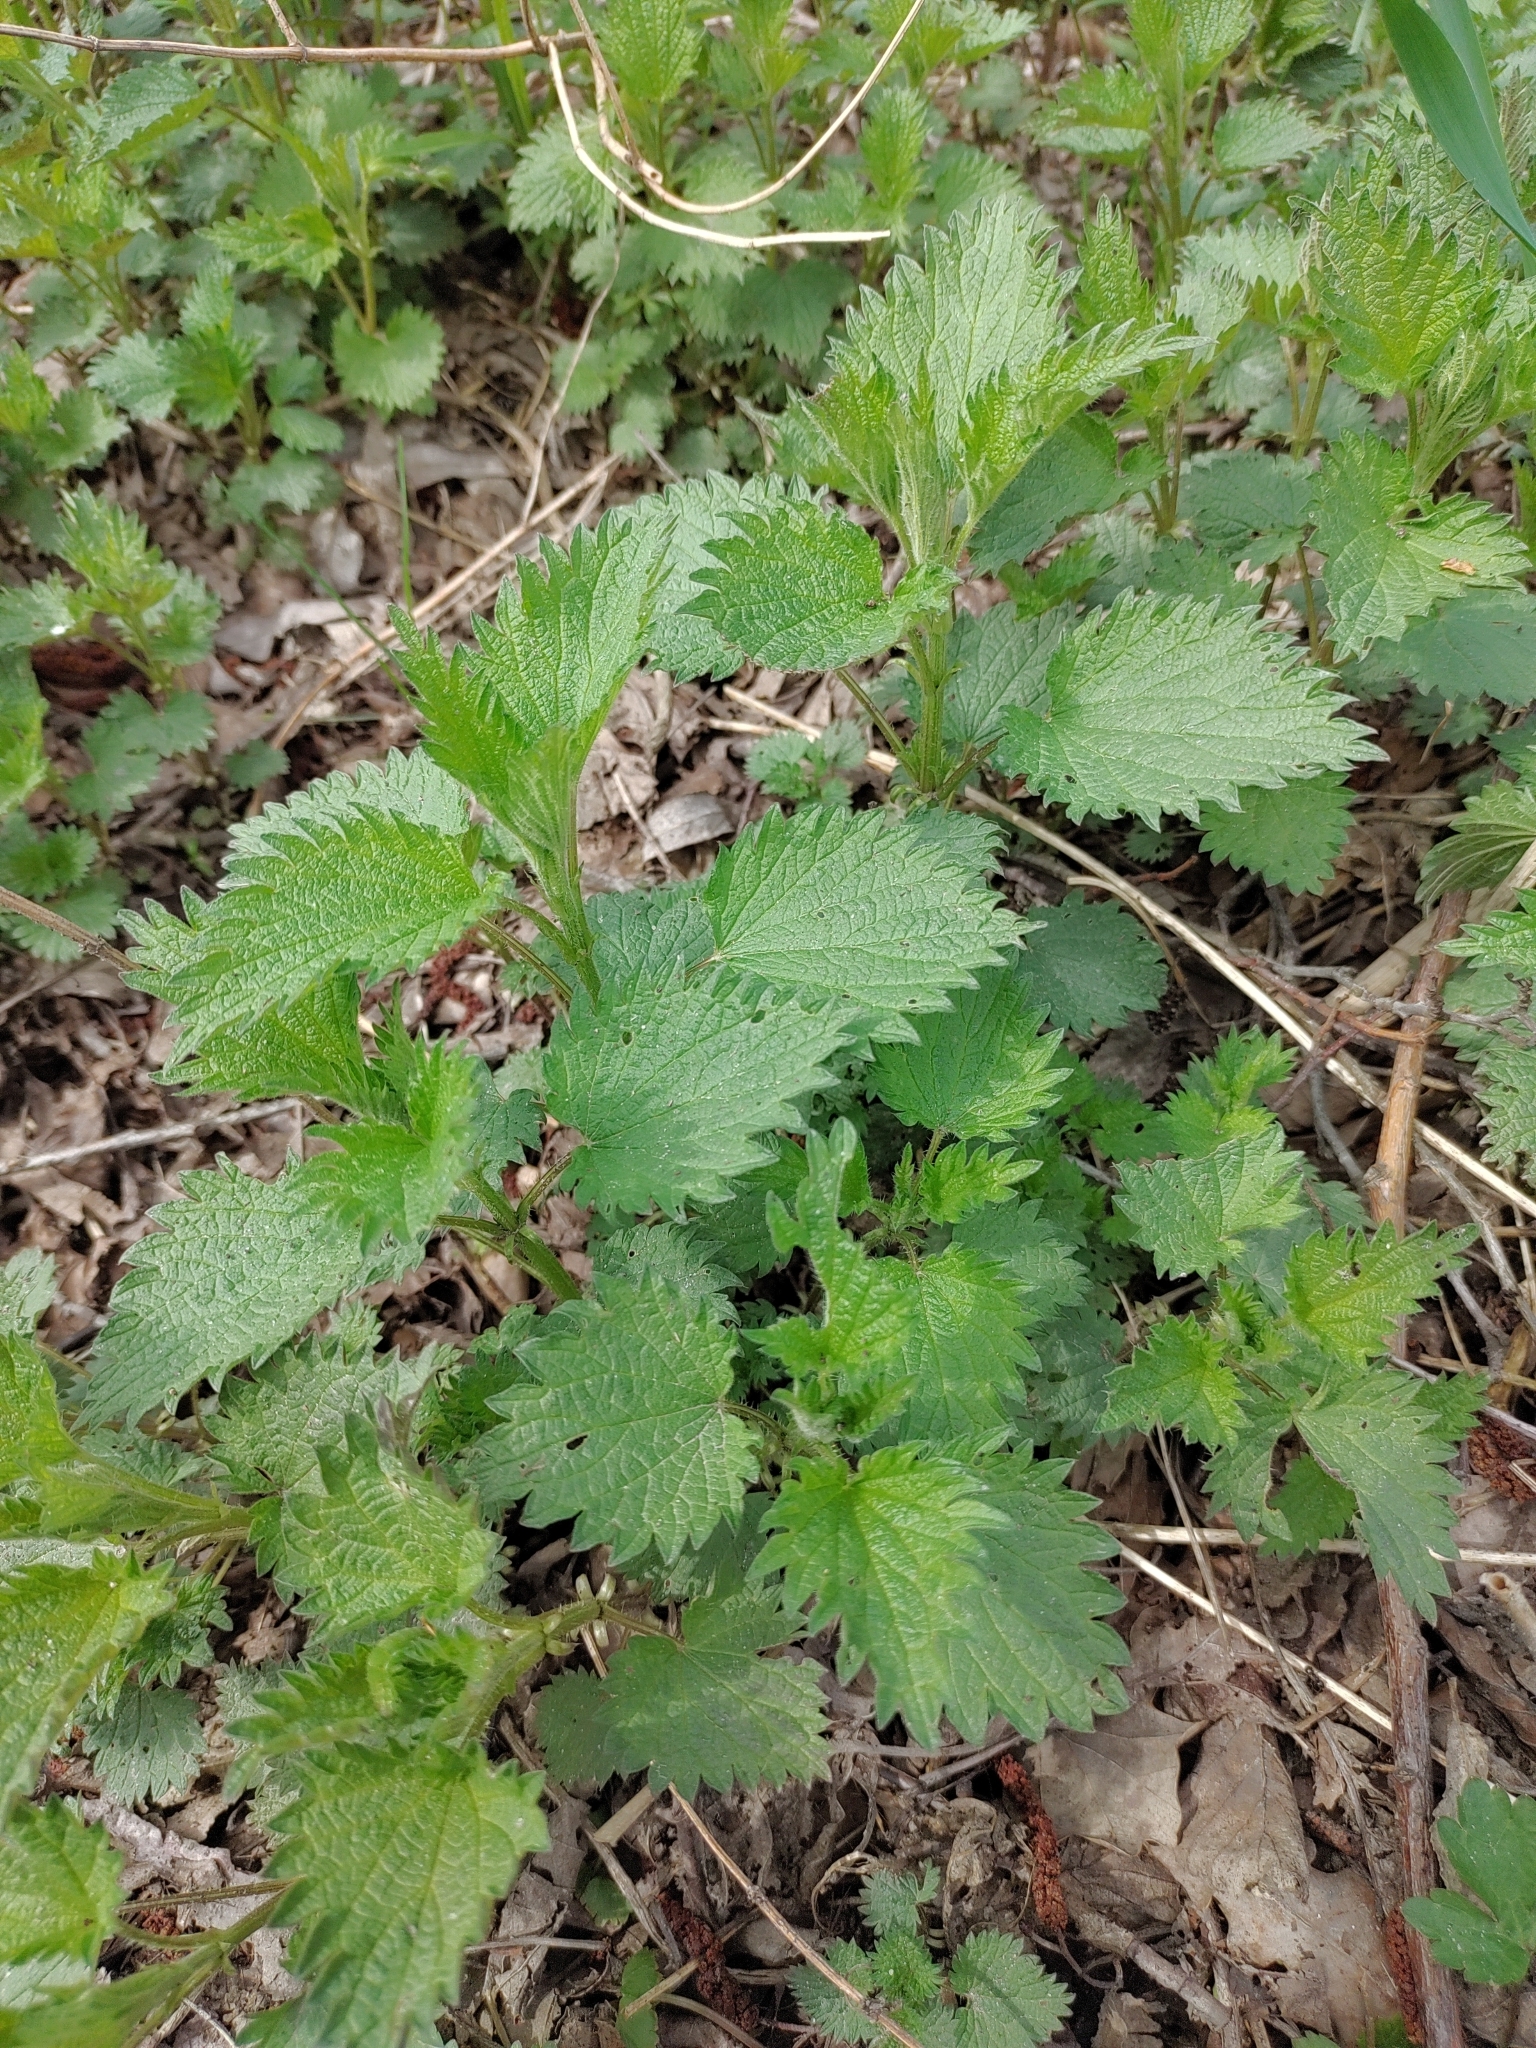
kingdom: Plantae
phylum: Tracheophyta
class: Magnoliopsida
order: Rosales
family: Urticaceae
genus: Urtica
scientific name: Urtica dioica
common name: Common nettle
